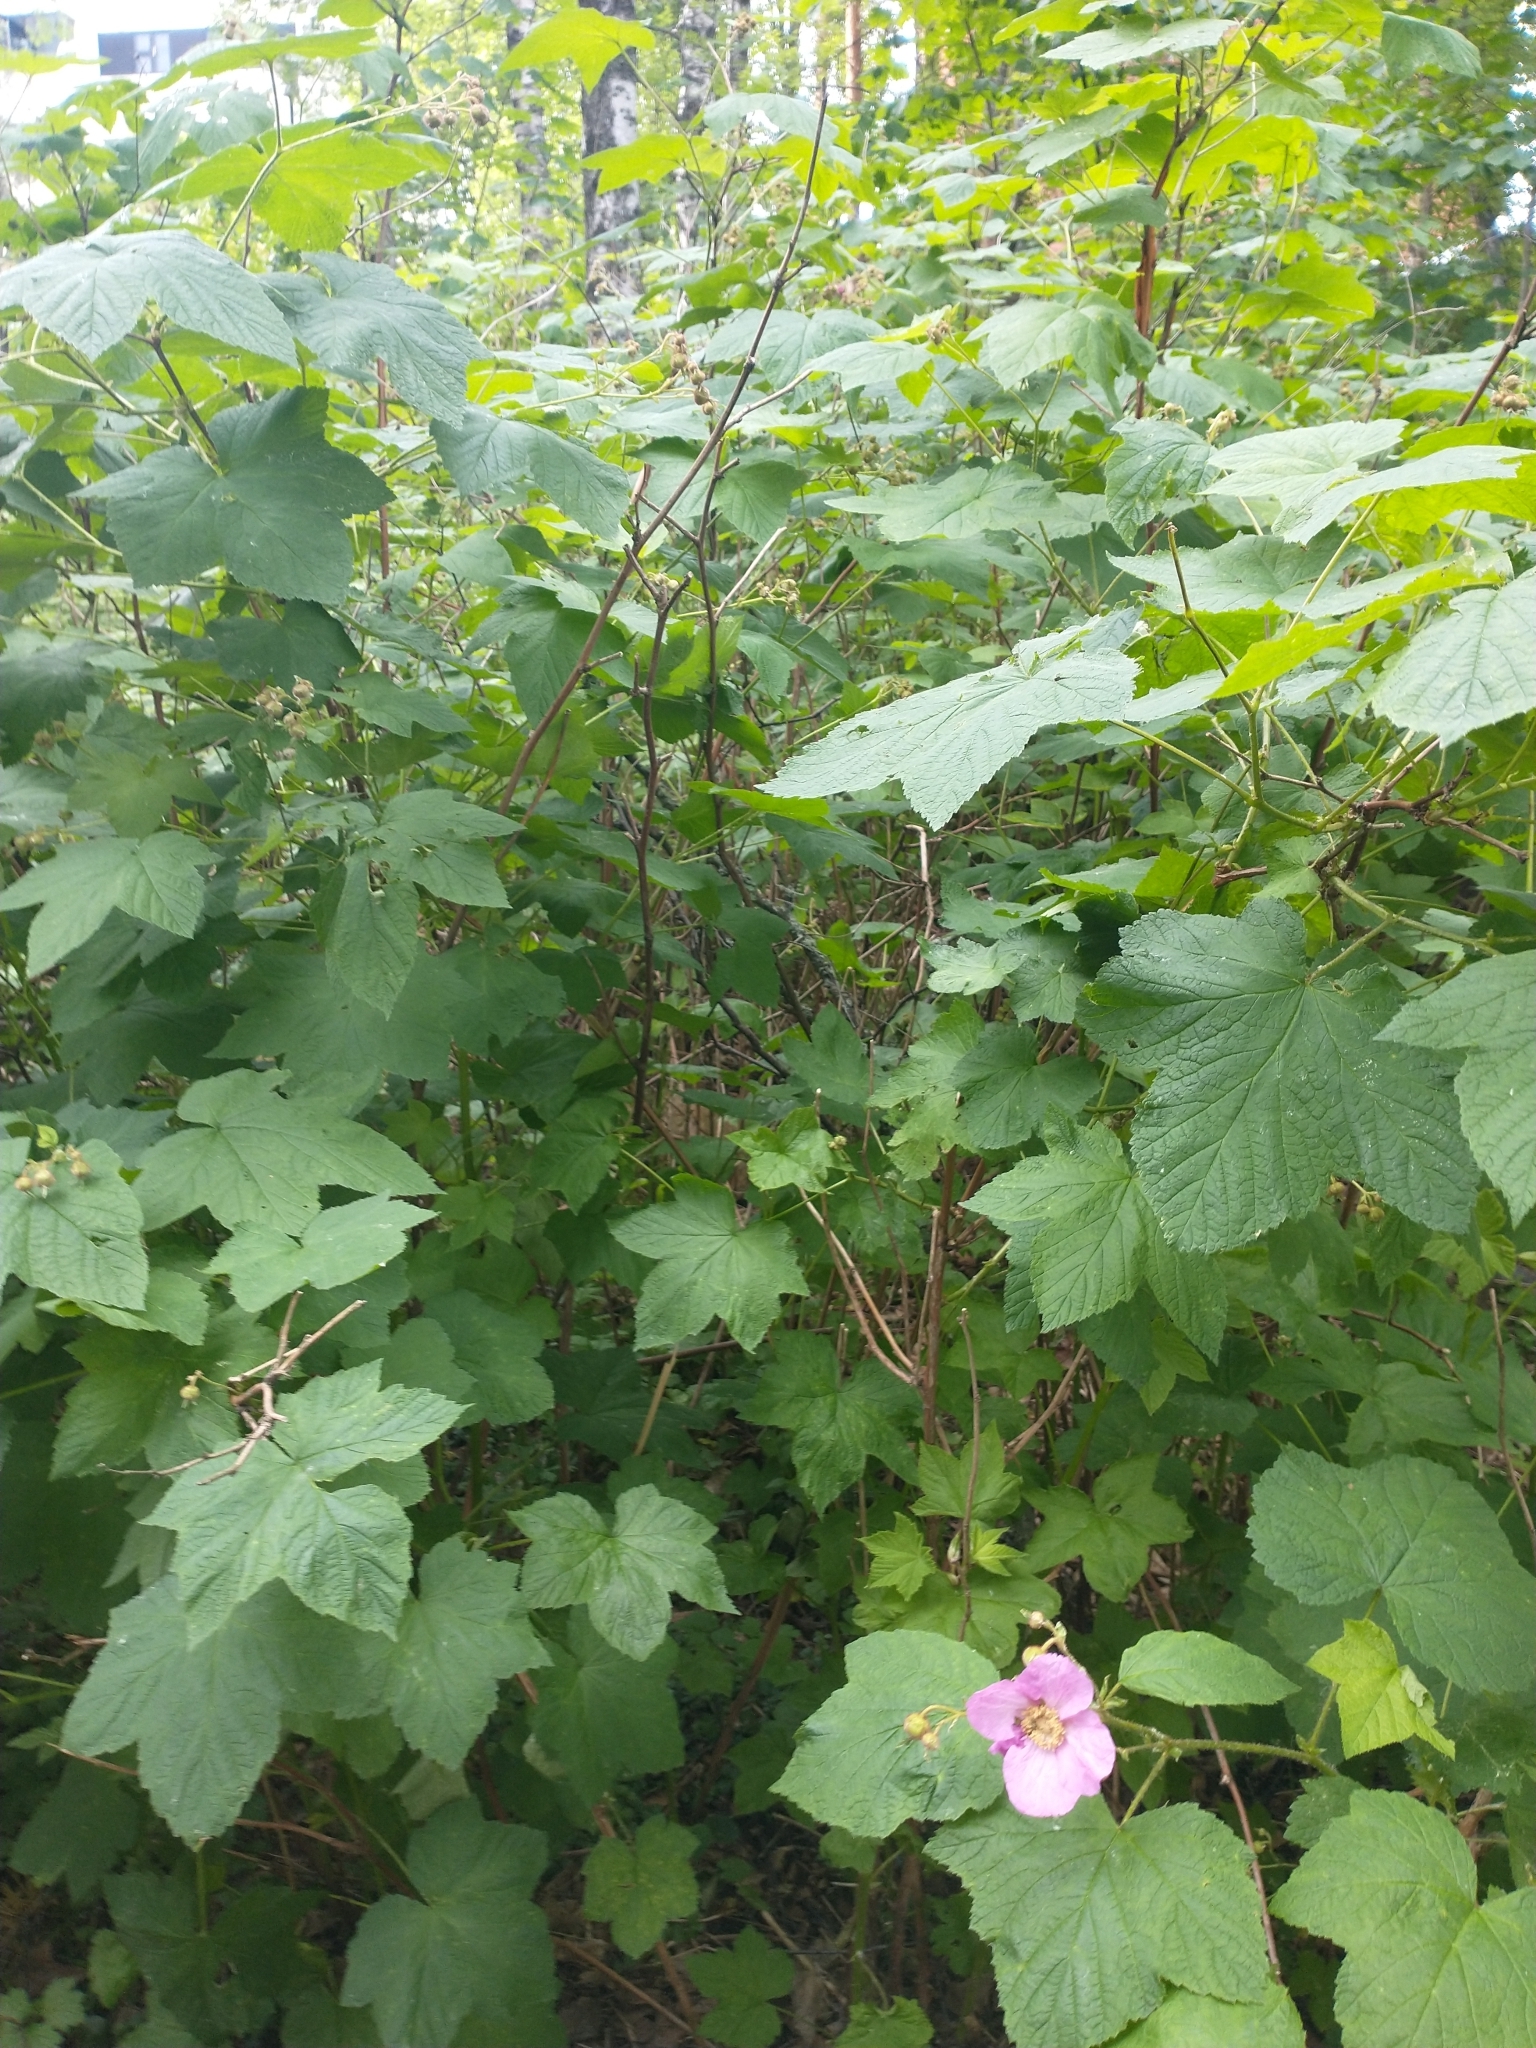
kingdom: Plantae
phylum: Tracheophyta
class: Magnoliopsida
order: Rosales
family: Rosaceae
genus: Rubus
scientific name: Rubus odoratus
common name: Purple-flowered raspberry
